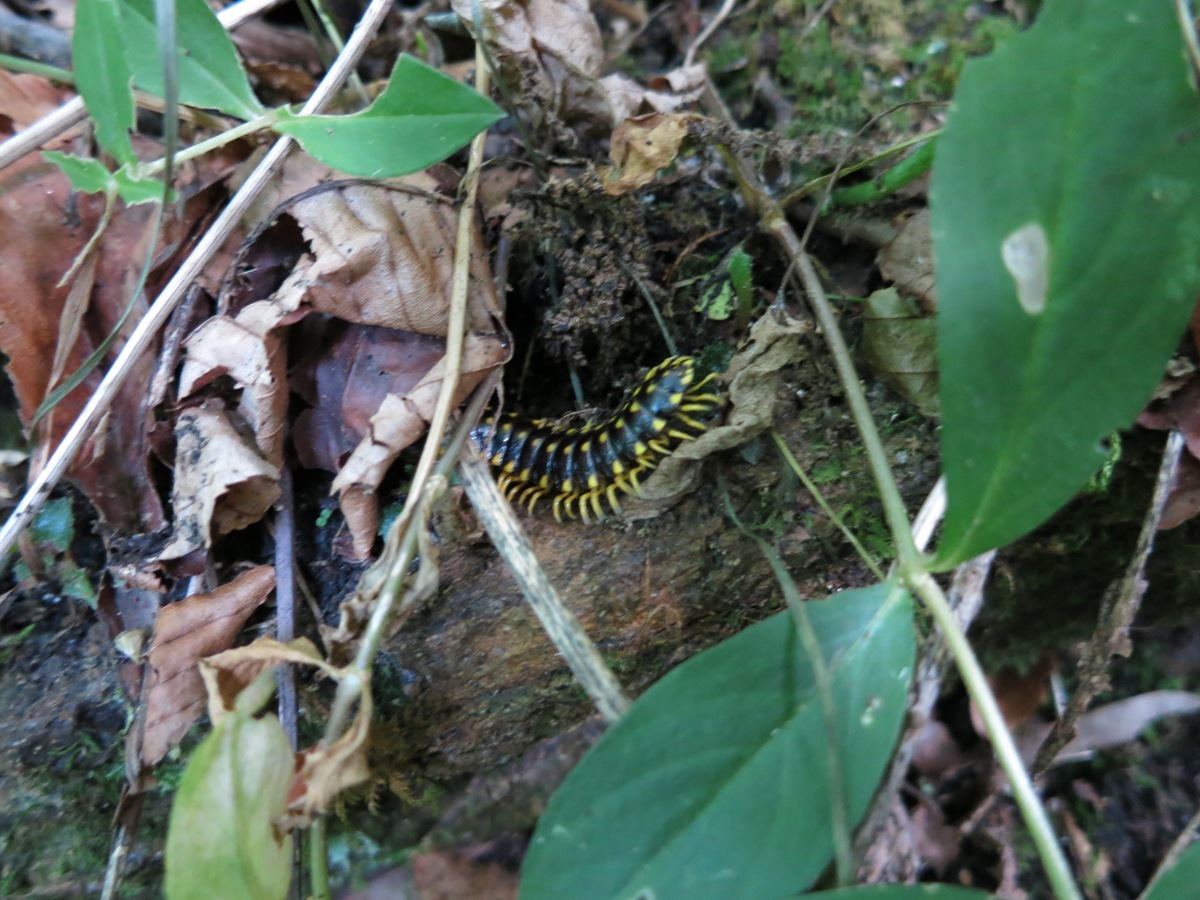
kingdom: Animalia
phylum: Arthropoda
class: Diplopoda
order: Polydesmida
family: Xystodesmidae
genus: Cherokia
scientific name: Cherokia georgiana
